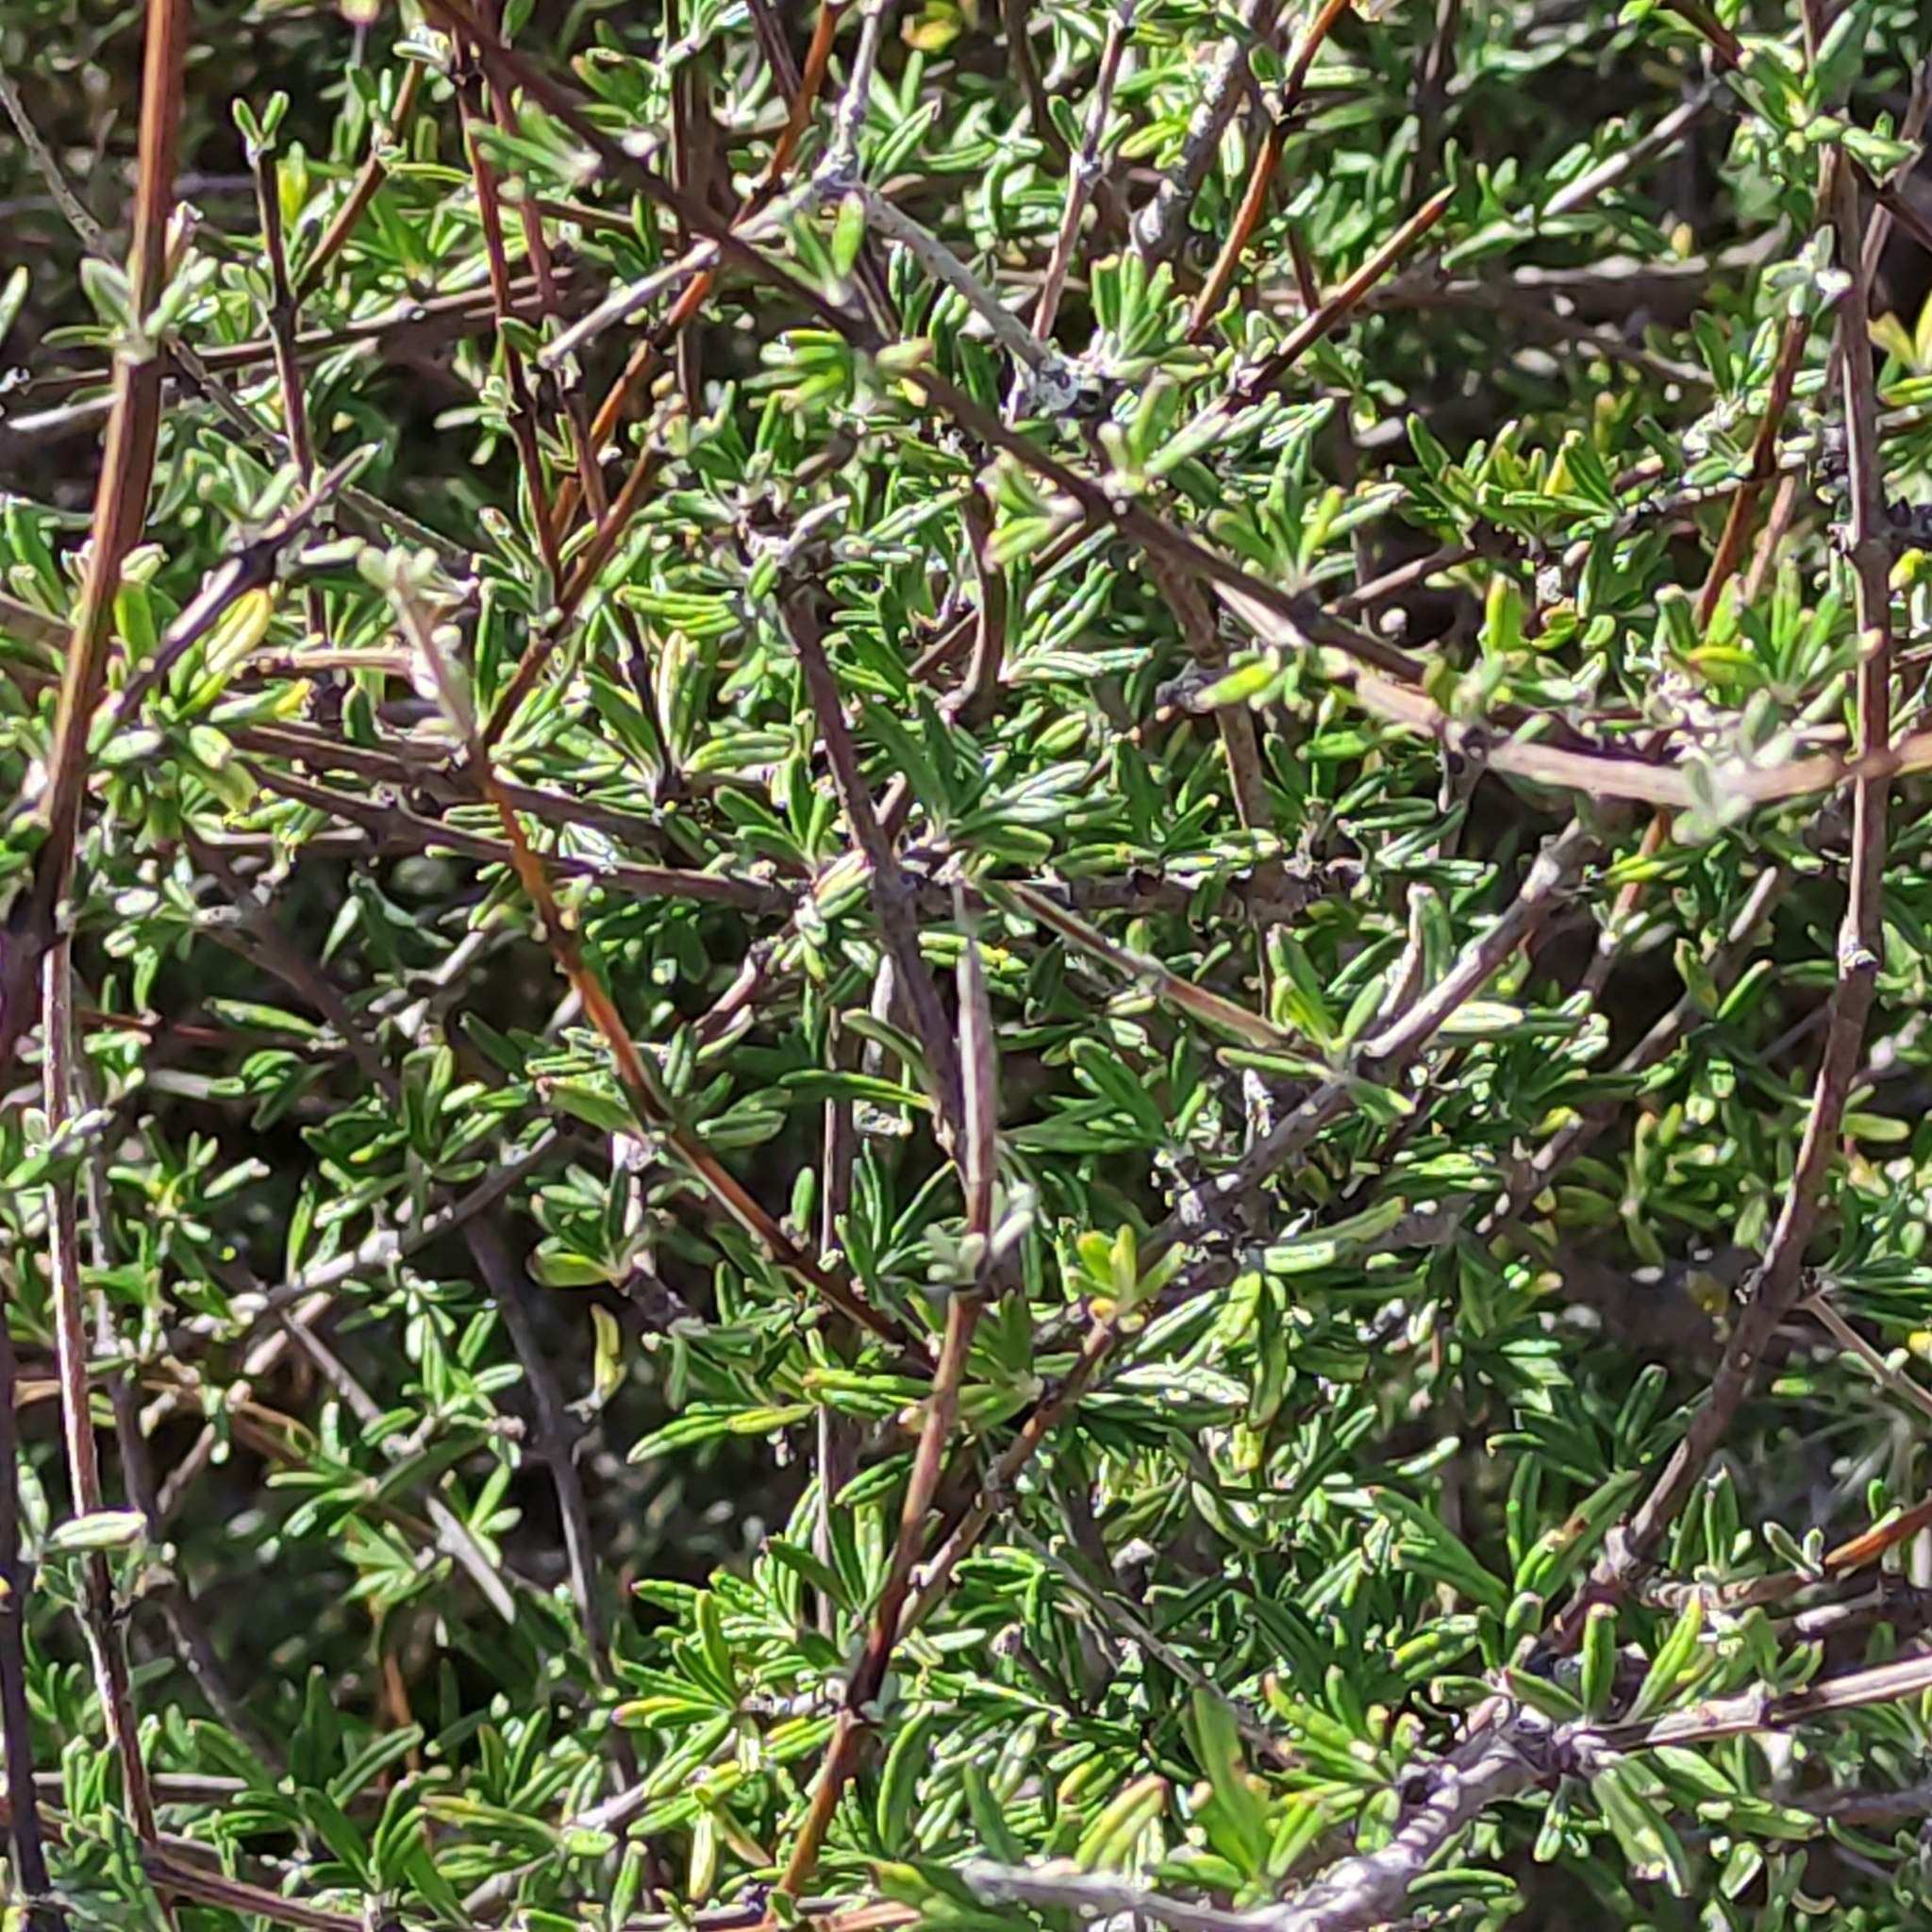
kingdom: Plantae
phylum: Tracheophyta
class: Magnoliopsida
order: Asterales
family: Asteraceae
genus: Olearia
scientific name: Olearia bullata
